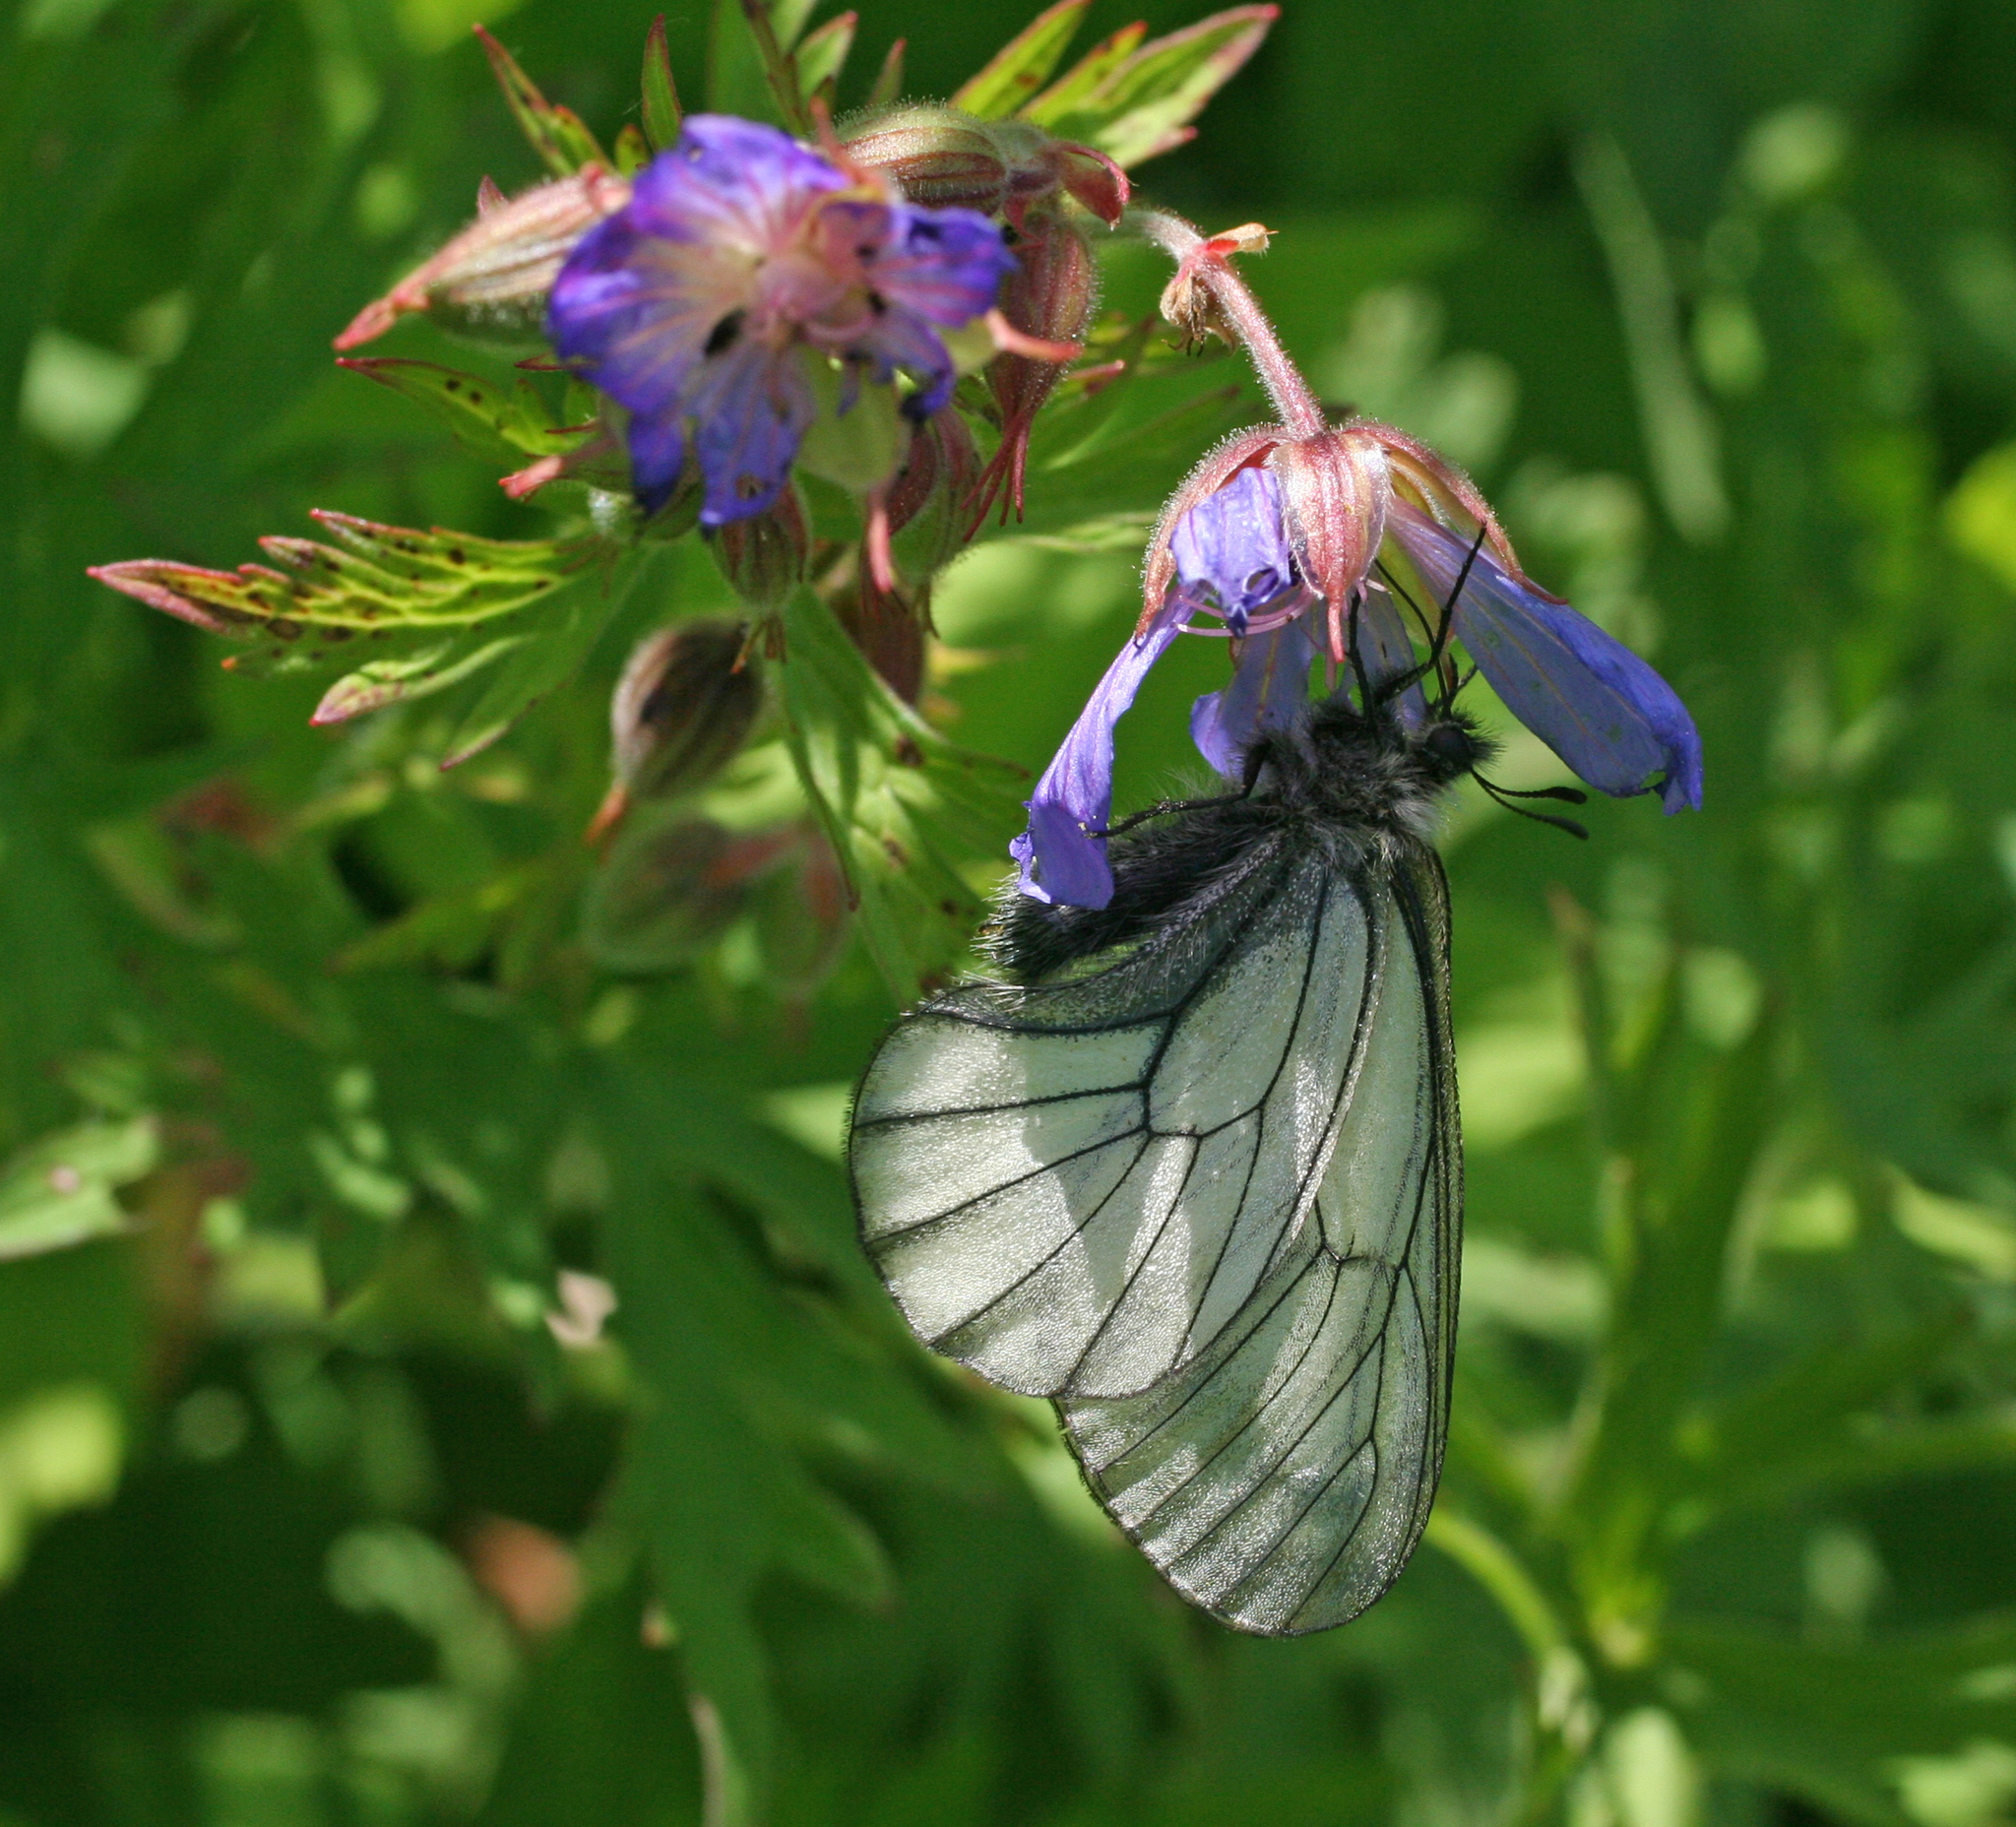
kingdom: Animalia
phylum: Arthropoda
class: Insecta
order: Lepidoptera
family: Papilionidae
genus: Parnassius
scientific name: Parnassius stubbendorfii
